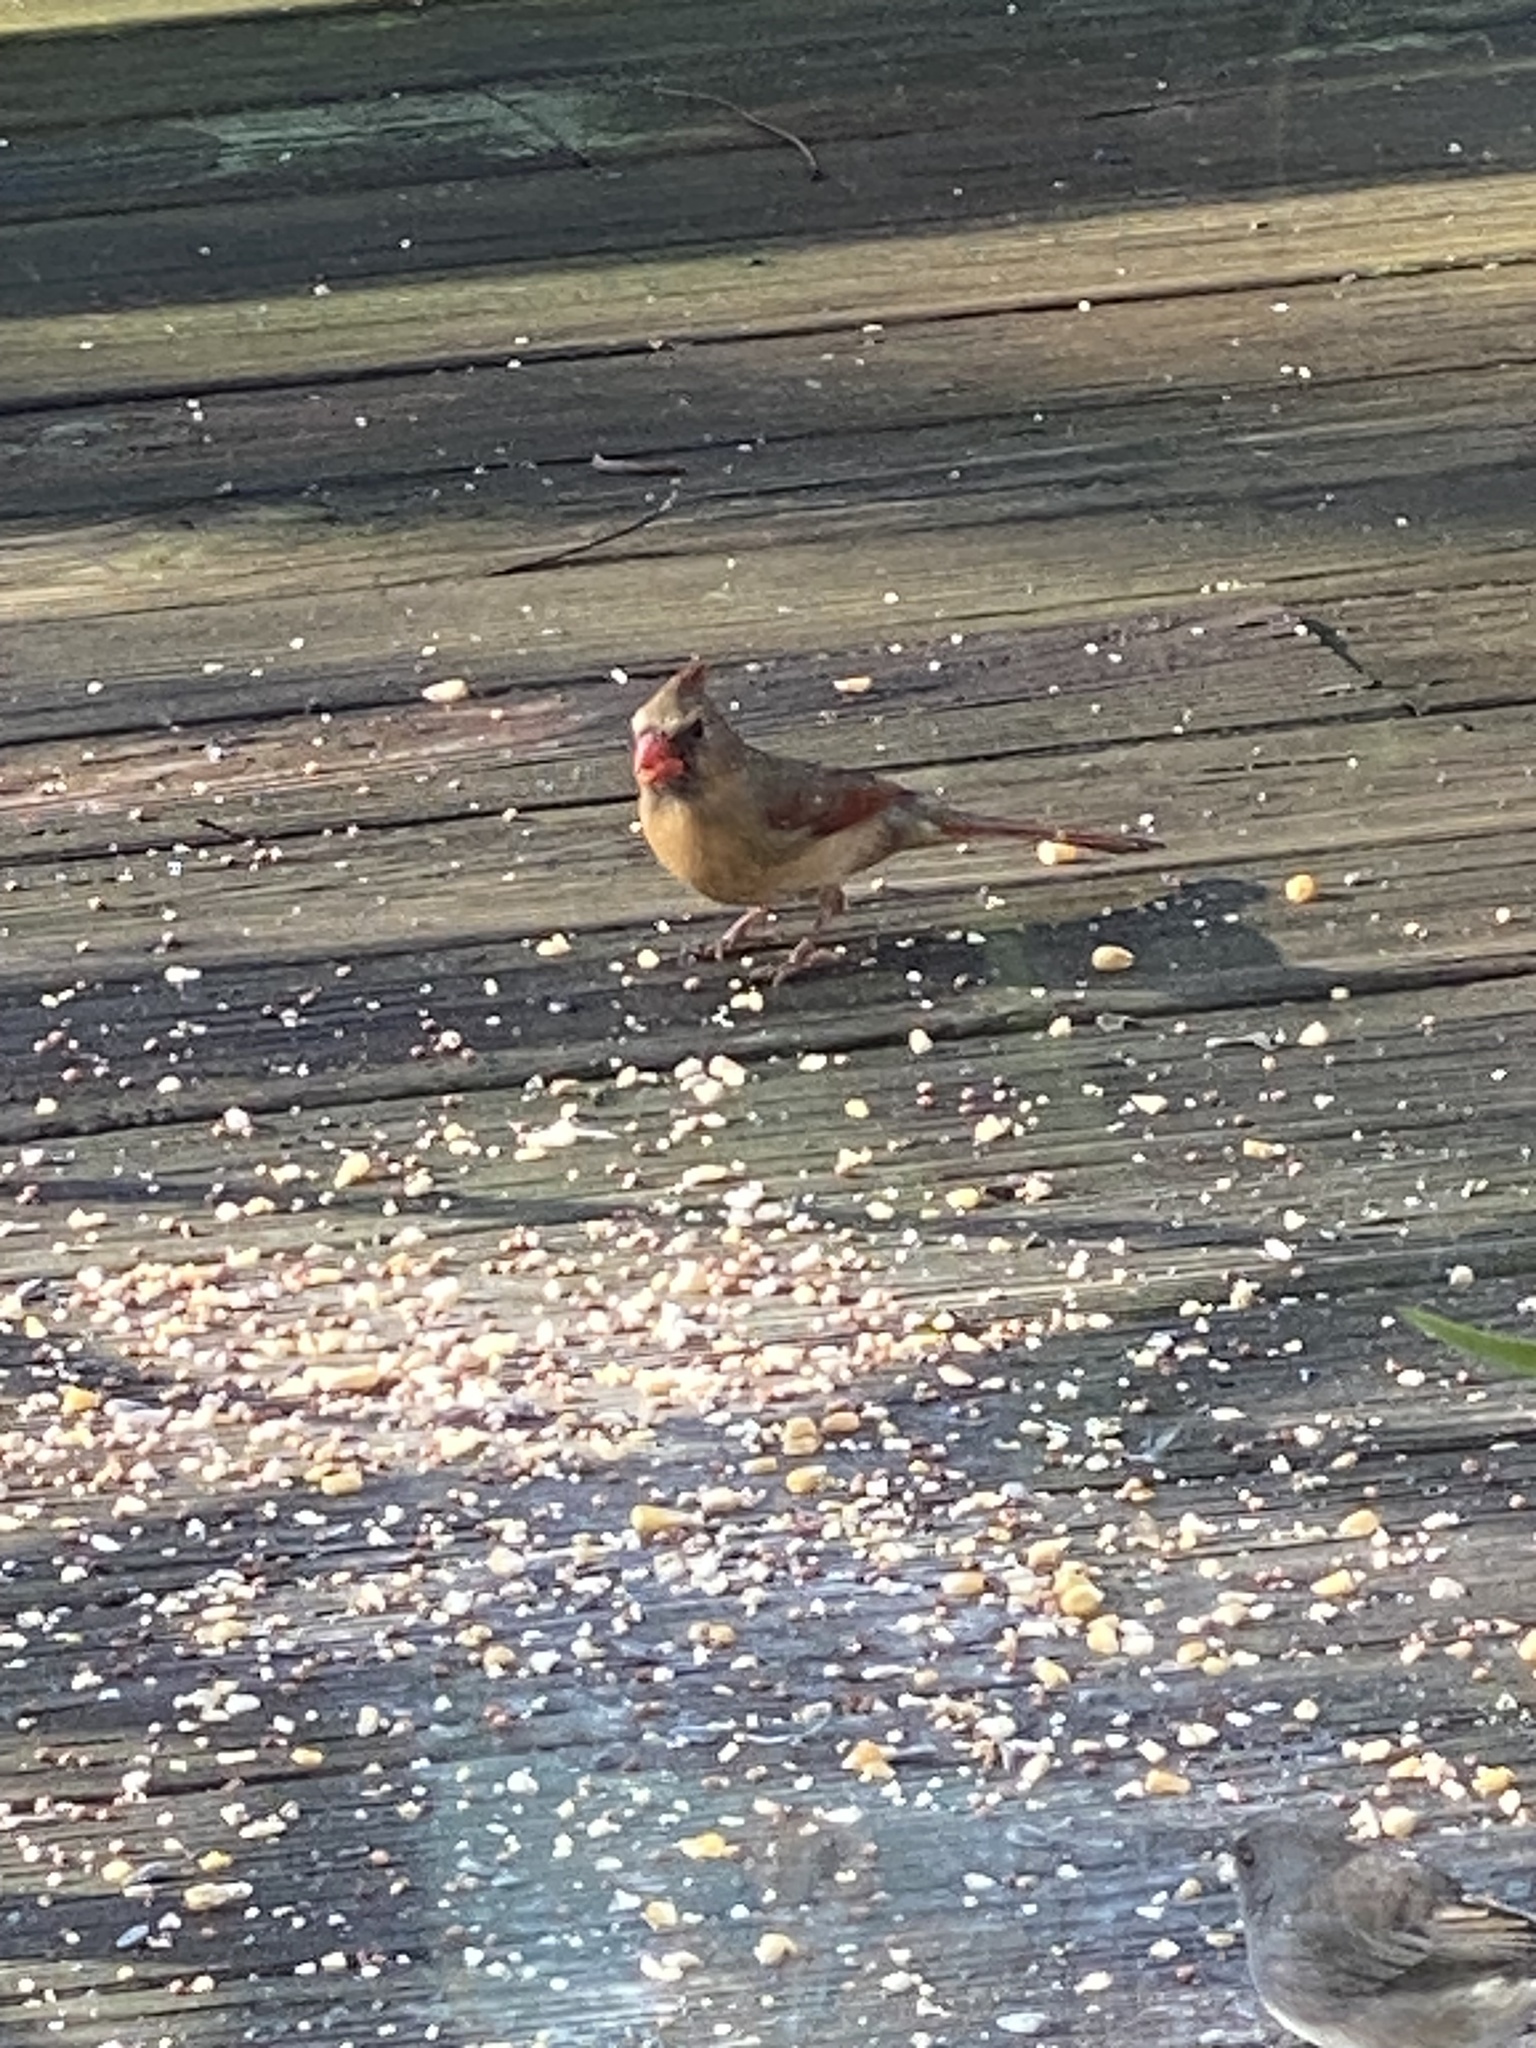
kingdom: Animalia
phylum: Chordata
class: Aves
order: Passeriformes
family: Cardinalidae
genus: Cardinalis
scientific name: Cardinalis cardinalis
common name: Northern cardinal
